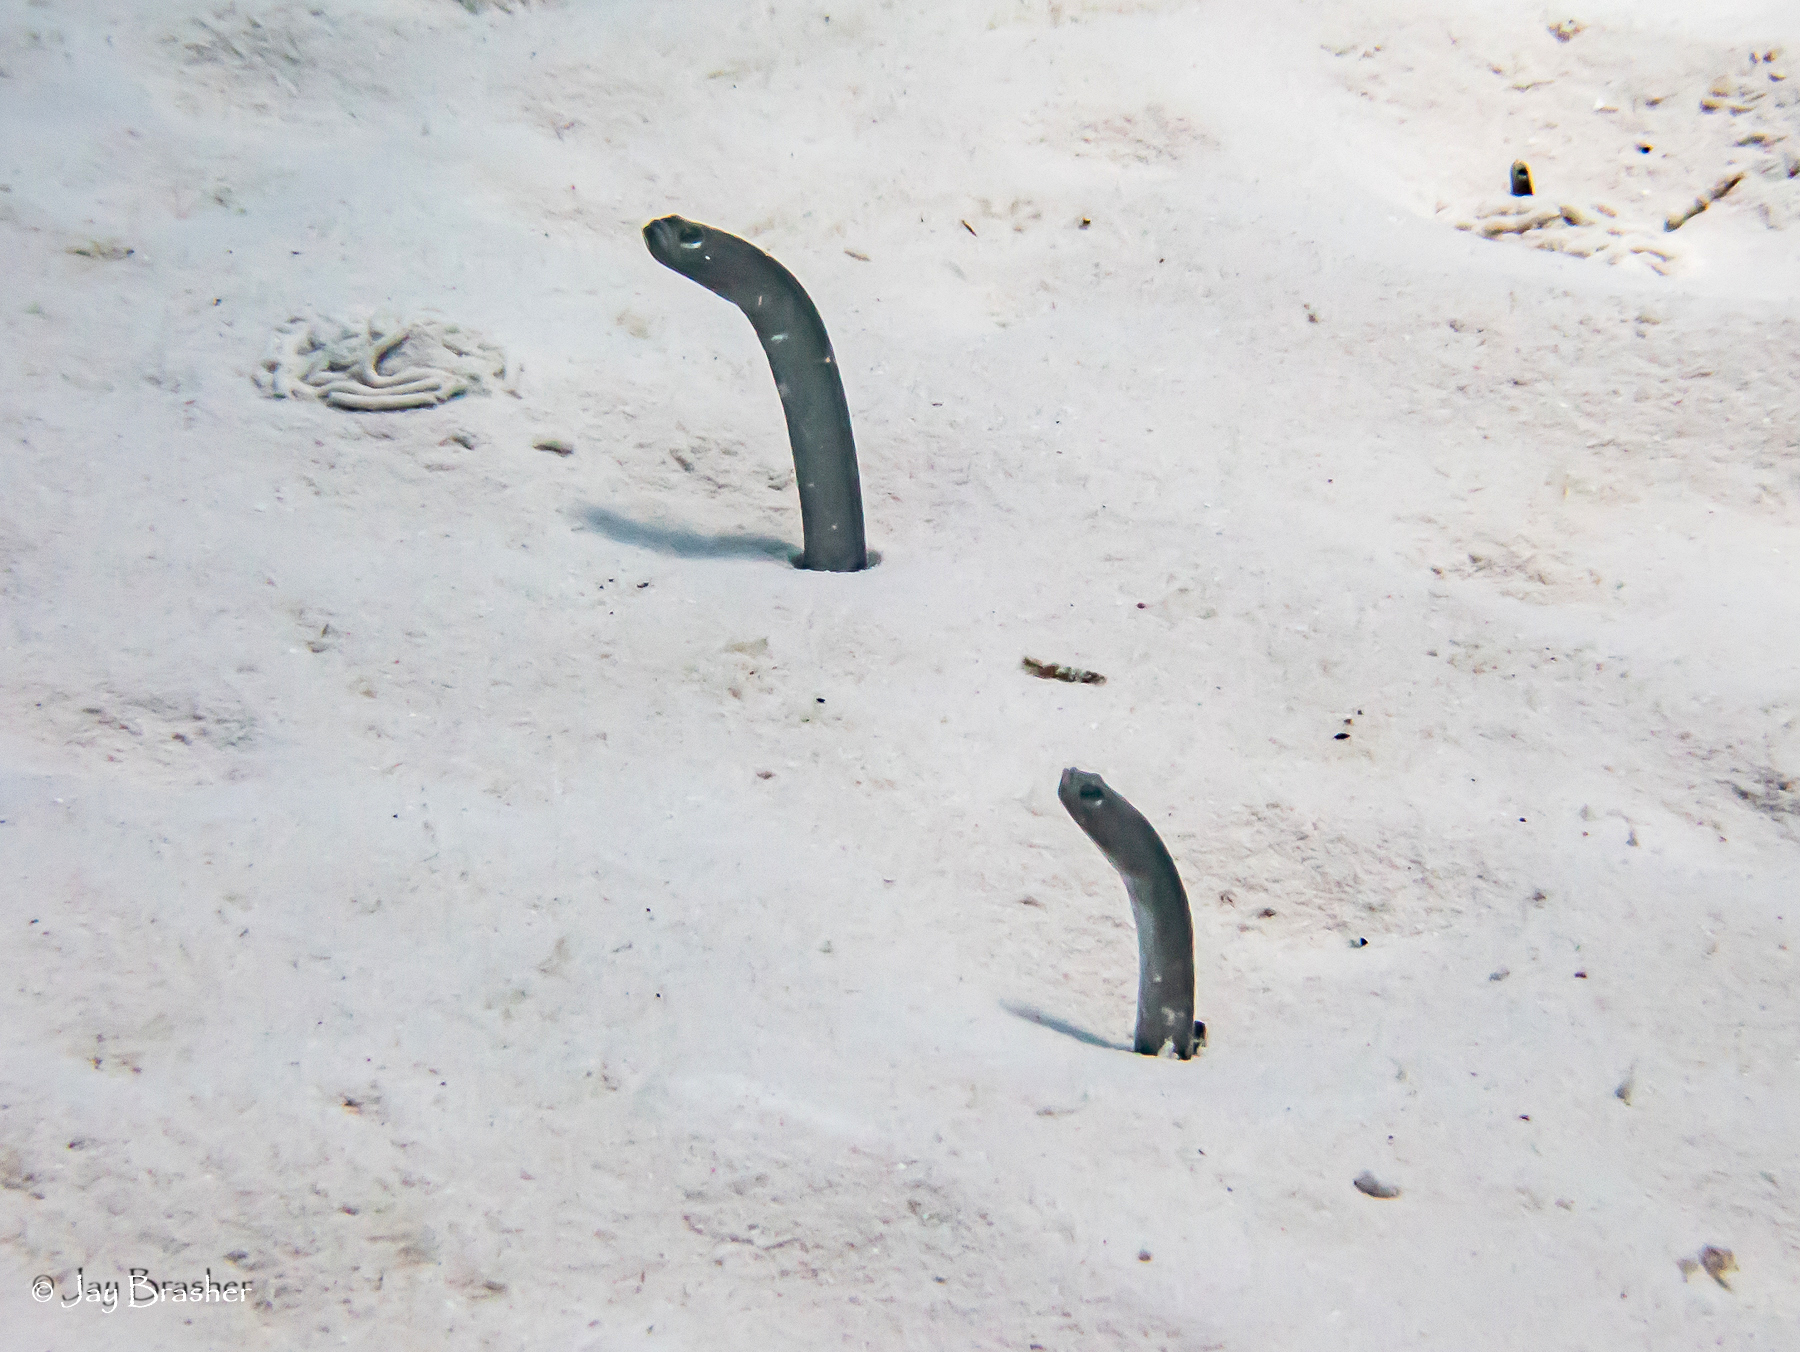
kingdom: Animalia
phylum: Chordata
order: Anguilliformes
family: Congridae
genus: Heteroconger
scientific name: Heteroconger longissimus
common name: Garden eel
